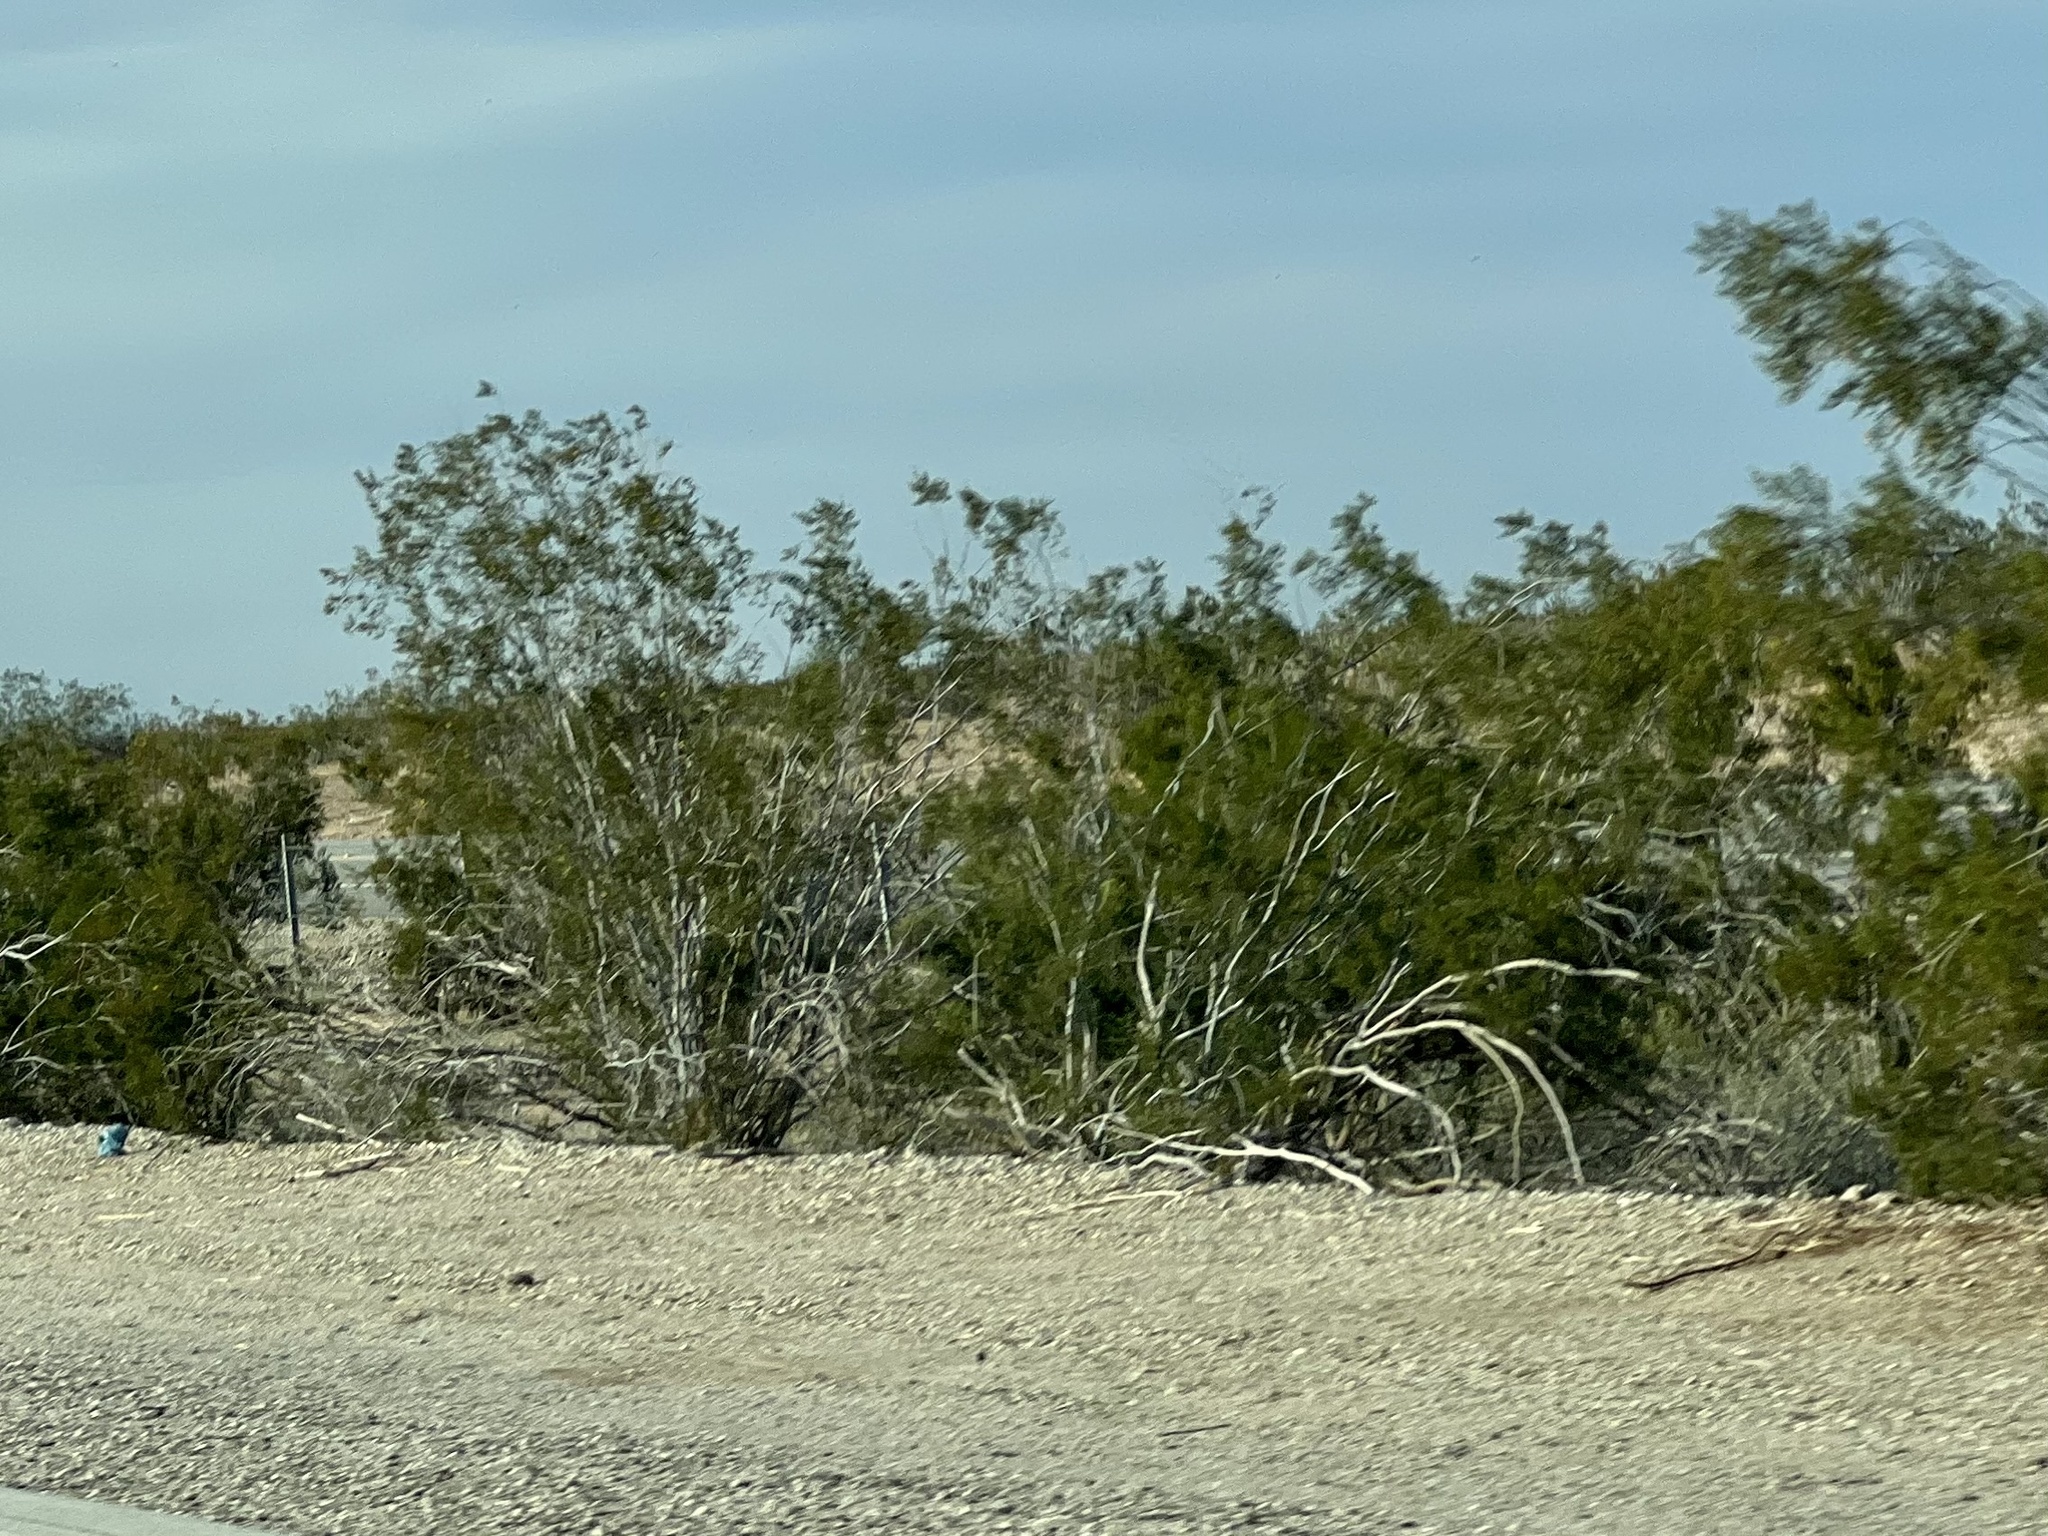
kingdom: Plantae
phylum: Tracheophyta
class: Magnoliopsida
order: Zygophyllales
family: Zygophyllaceae
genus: Larrea
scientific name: Larrea tridentata
